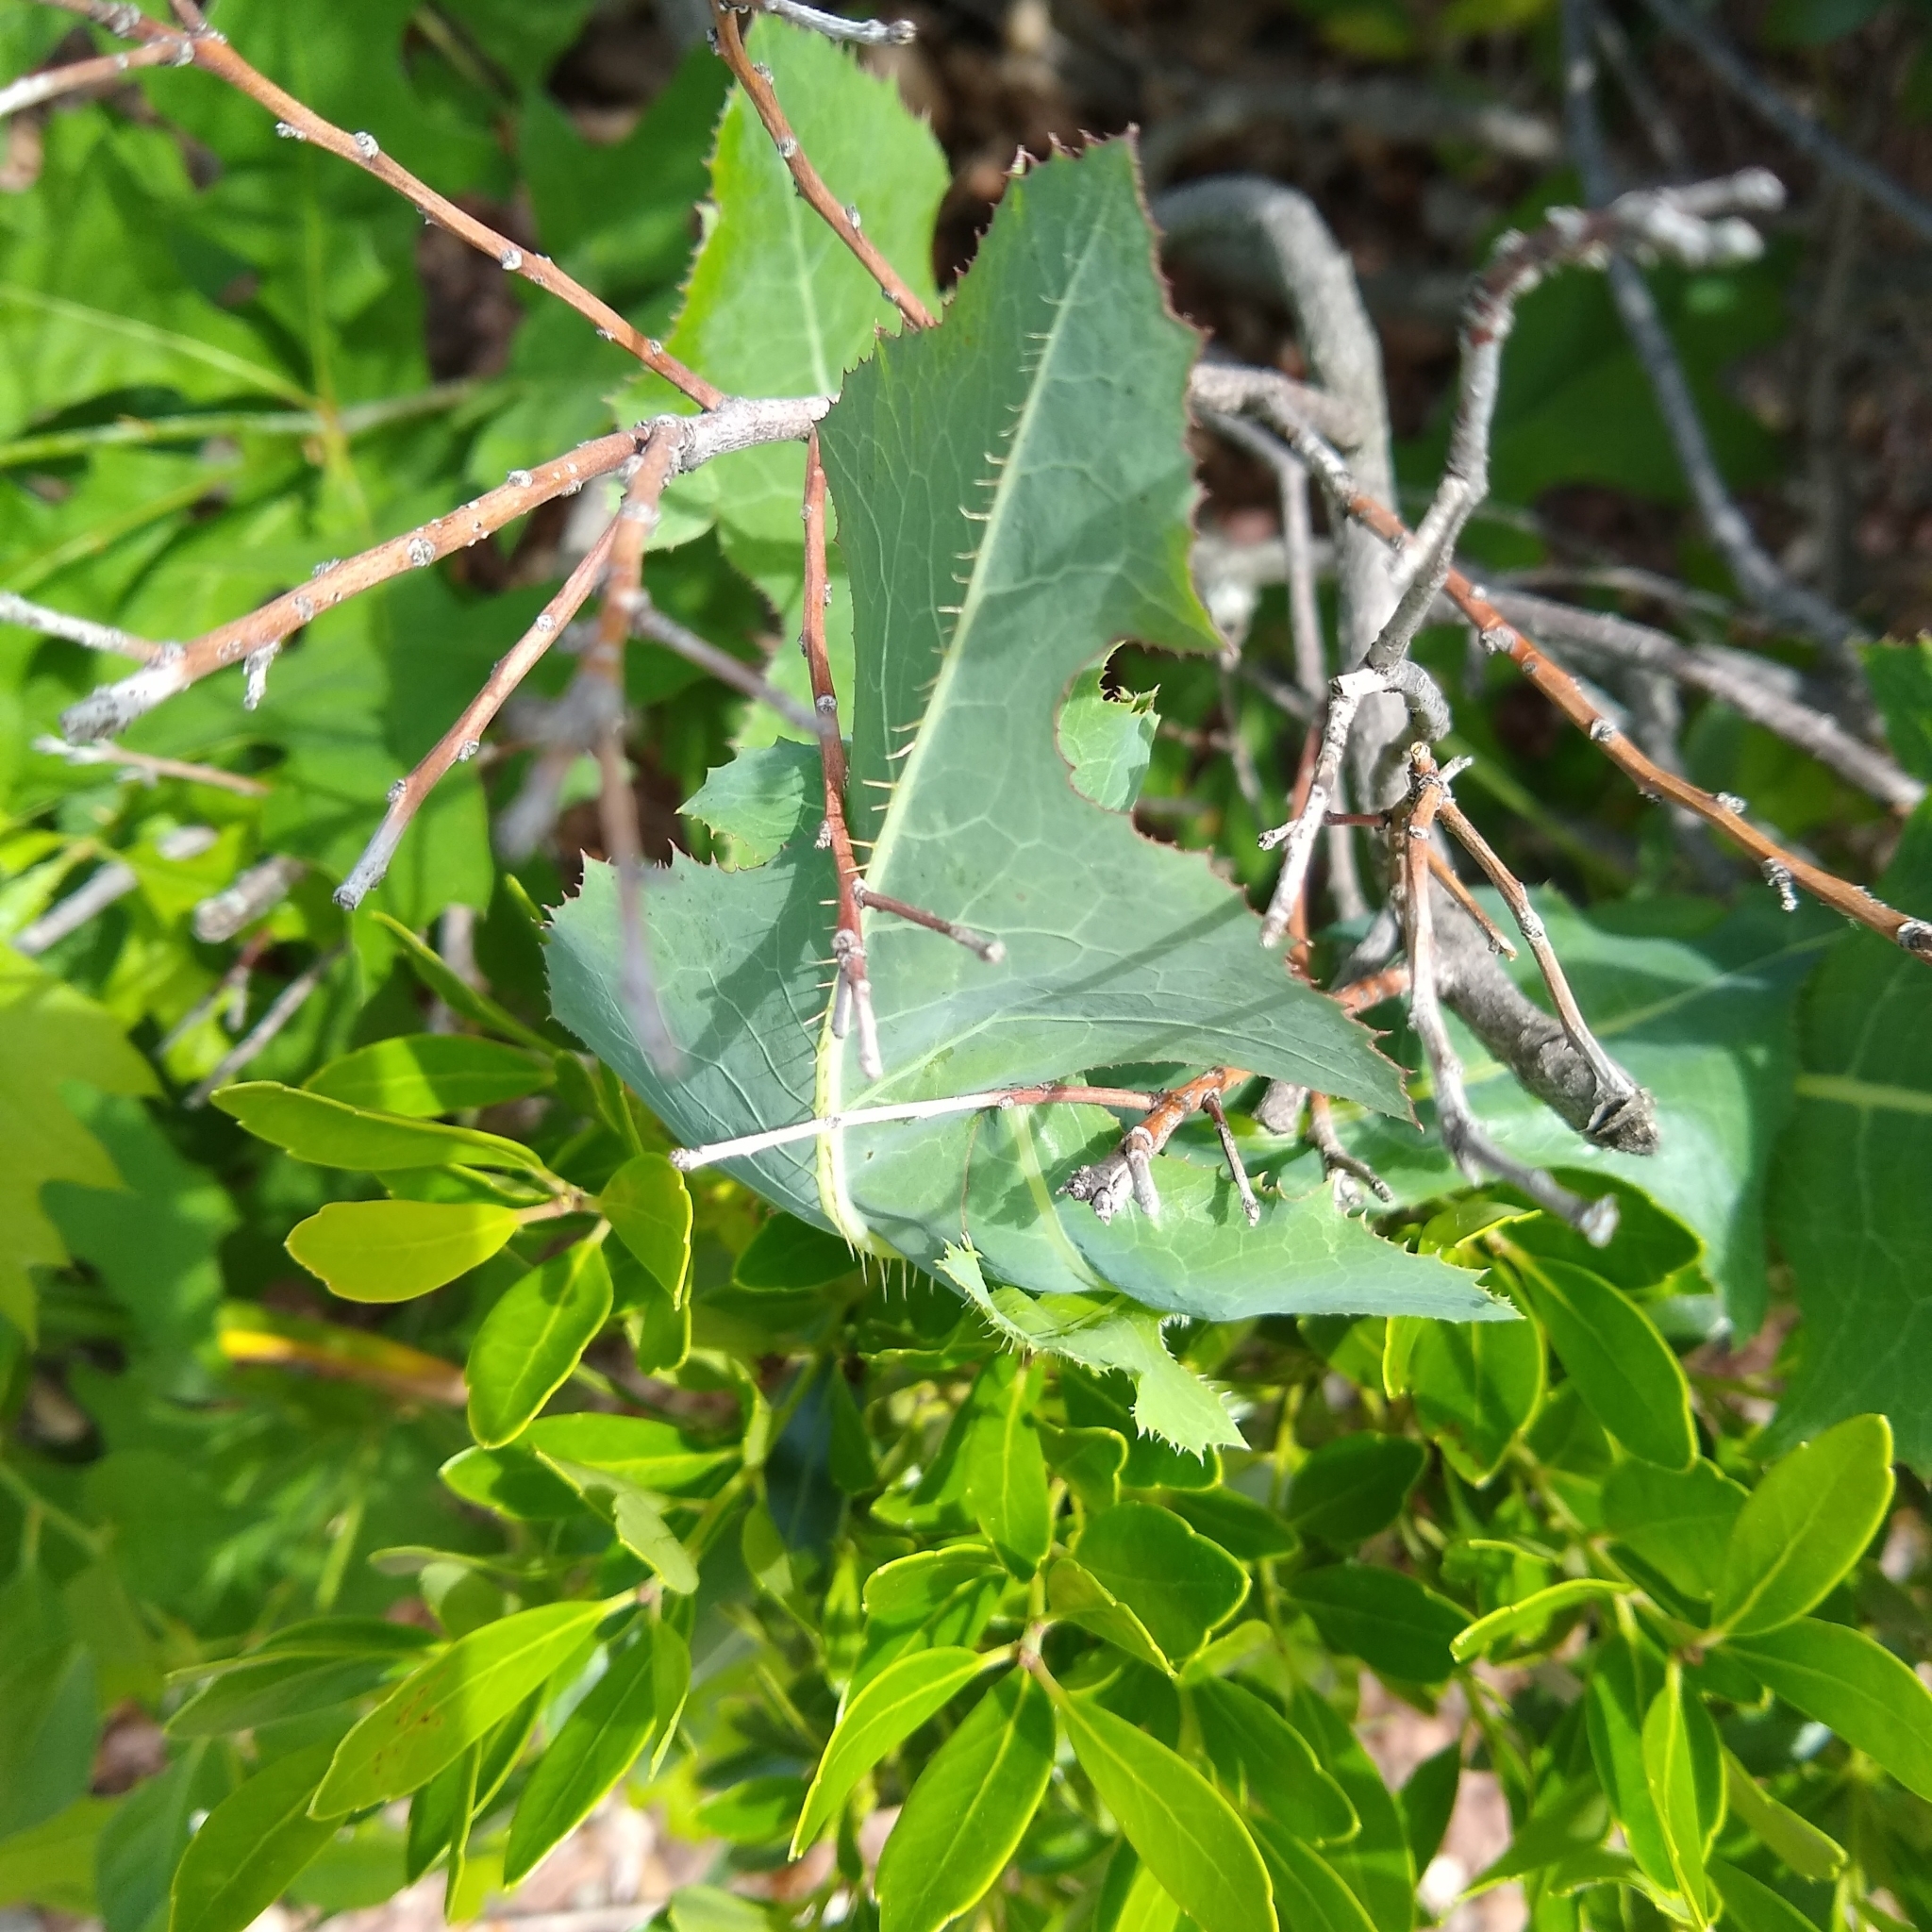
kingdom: Plantae
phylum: Tracheophyta
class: Magnoliopsida
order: Asterales
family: Asteraceae
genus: Lactuca
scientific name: Lactuca serriola
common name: Prickly lettuce
